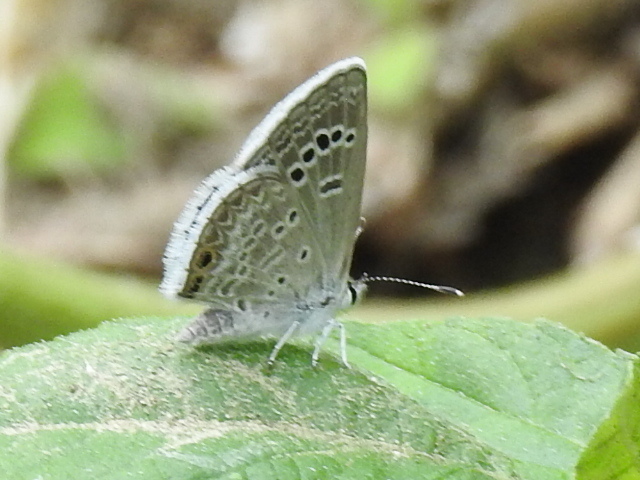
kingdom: Animalia
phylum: Arthropoda
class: Insecta
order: Lepidoptera
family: Lycaenidae
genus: Echinargus
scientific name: Echinargus isola
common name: Reakirt's blue
